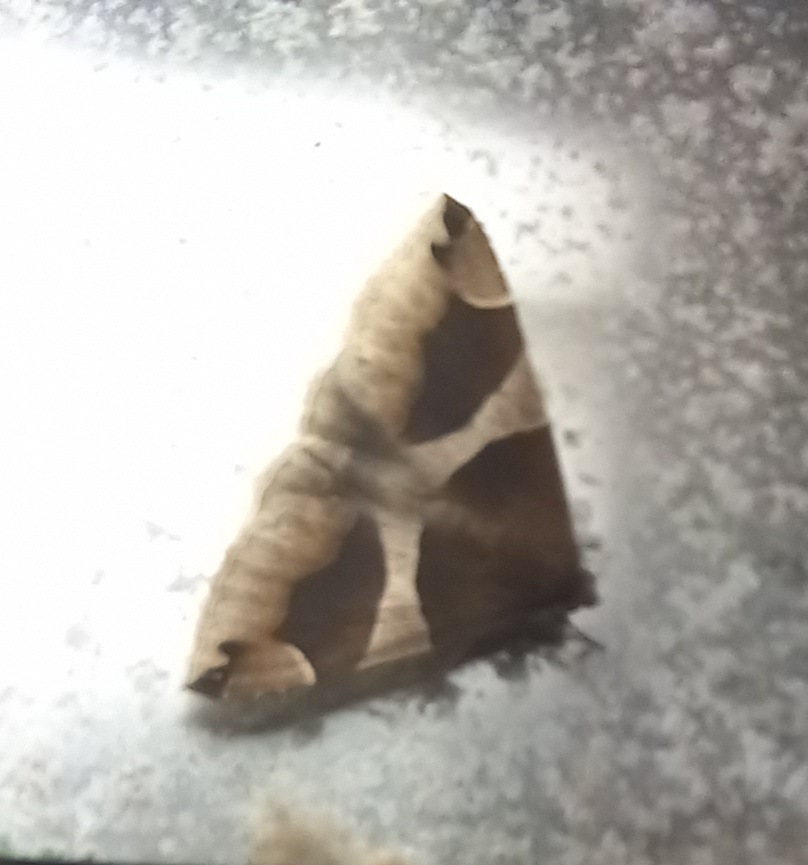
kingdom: Animalia
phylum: Arthropoda
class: Insecta
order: Lepidoptera
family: Erebidae
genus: Dysgonia
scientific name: Dysgonia algira
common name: Passenger
